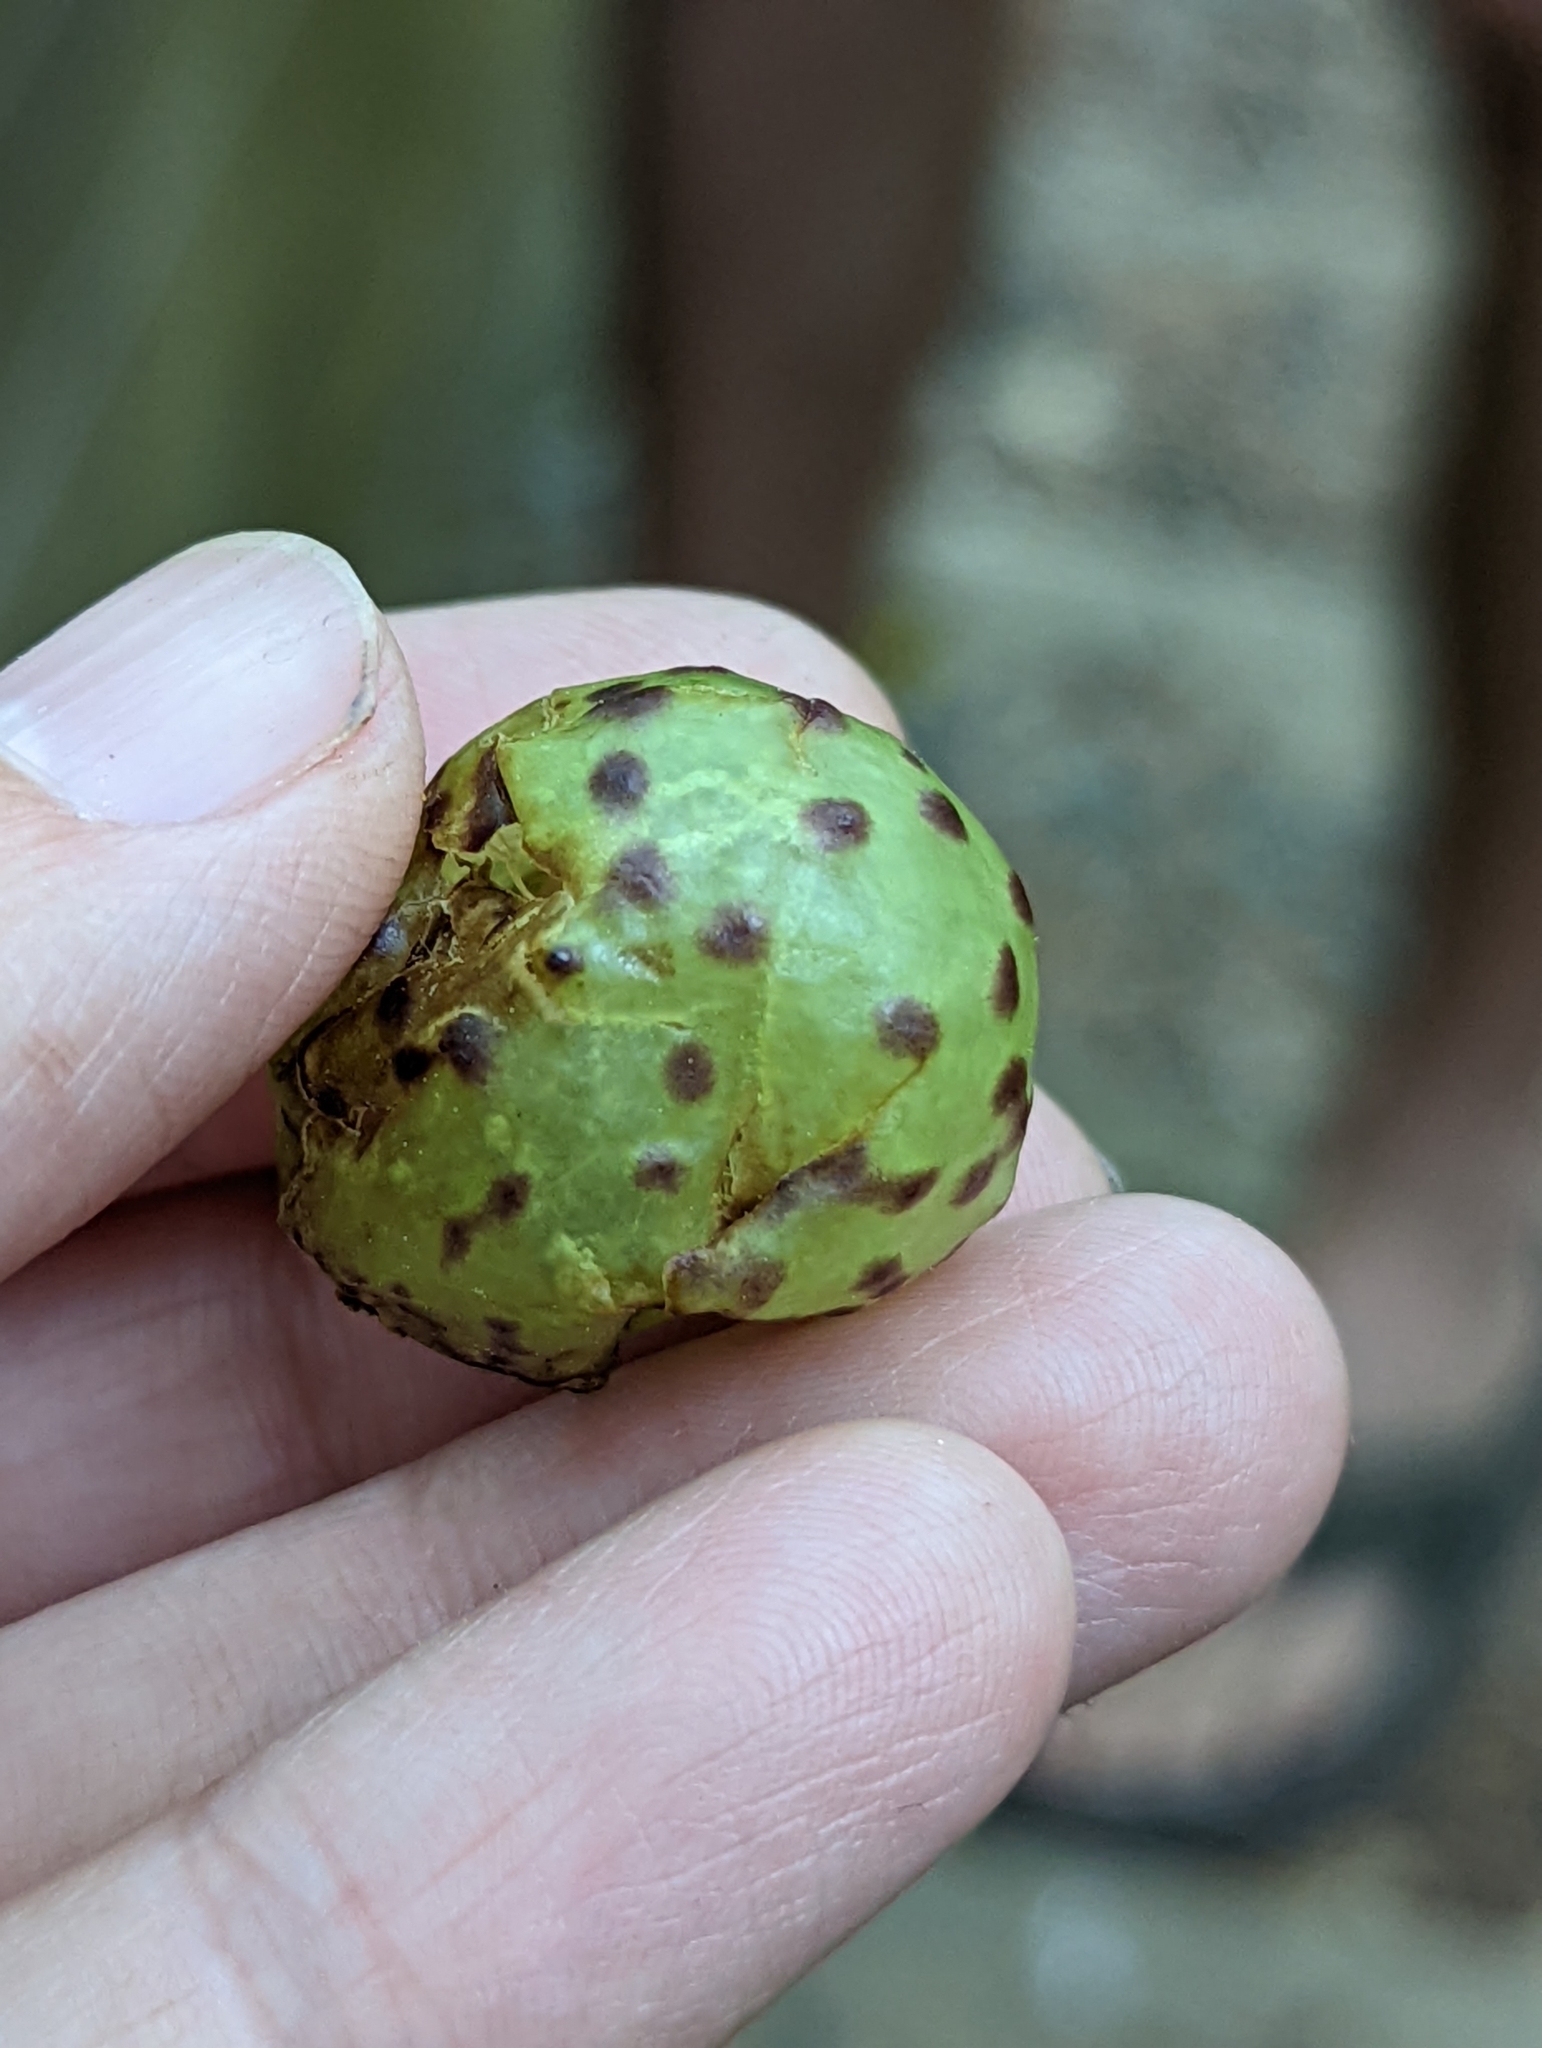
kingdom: Animalia
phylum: Arthropoda
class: Insecta
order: Hymenoptera
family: Cynipidae
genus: Amphibolips
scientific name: Amphibolips
